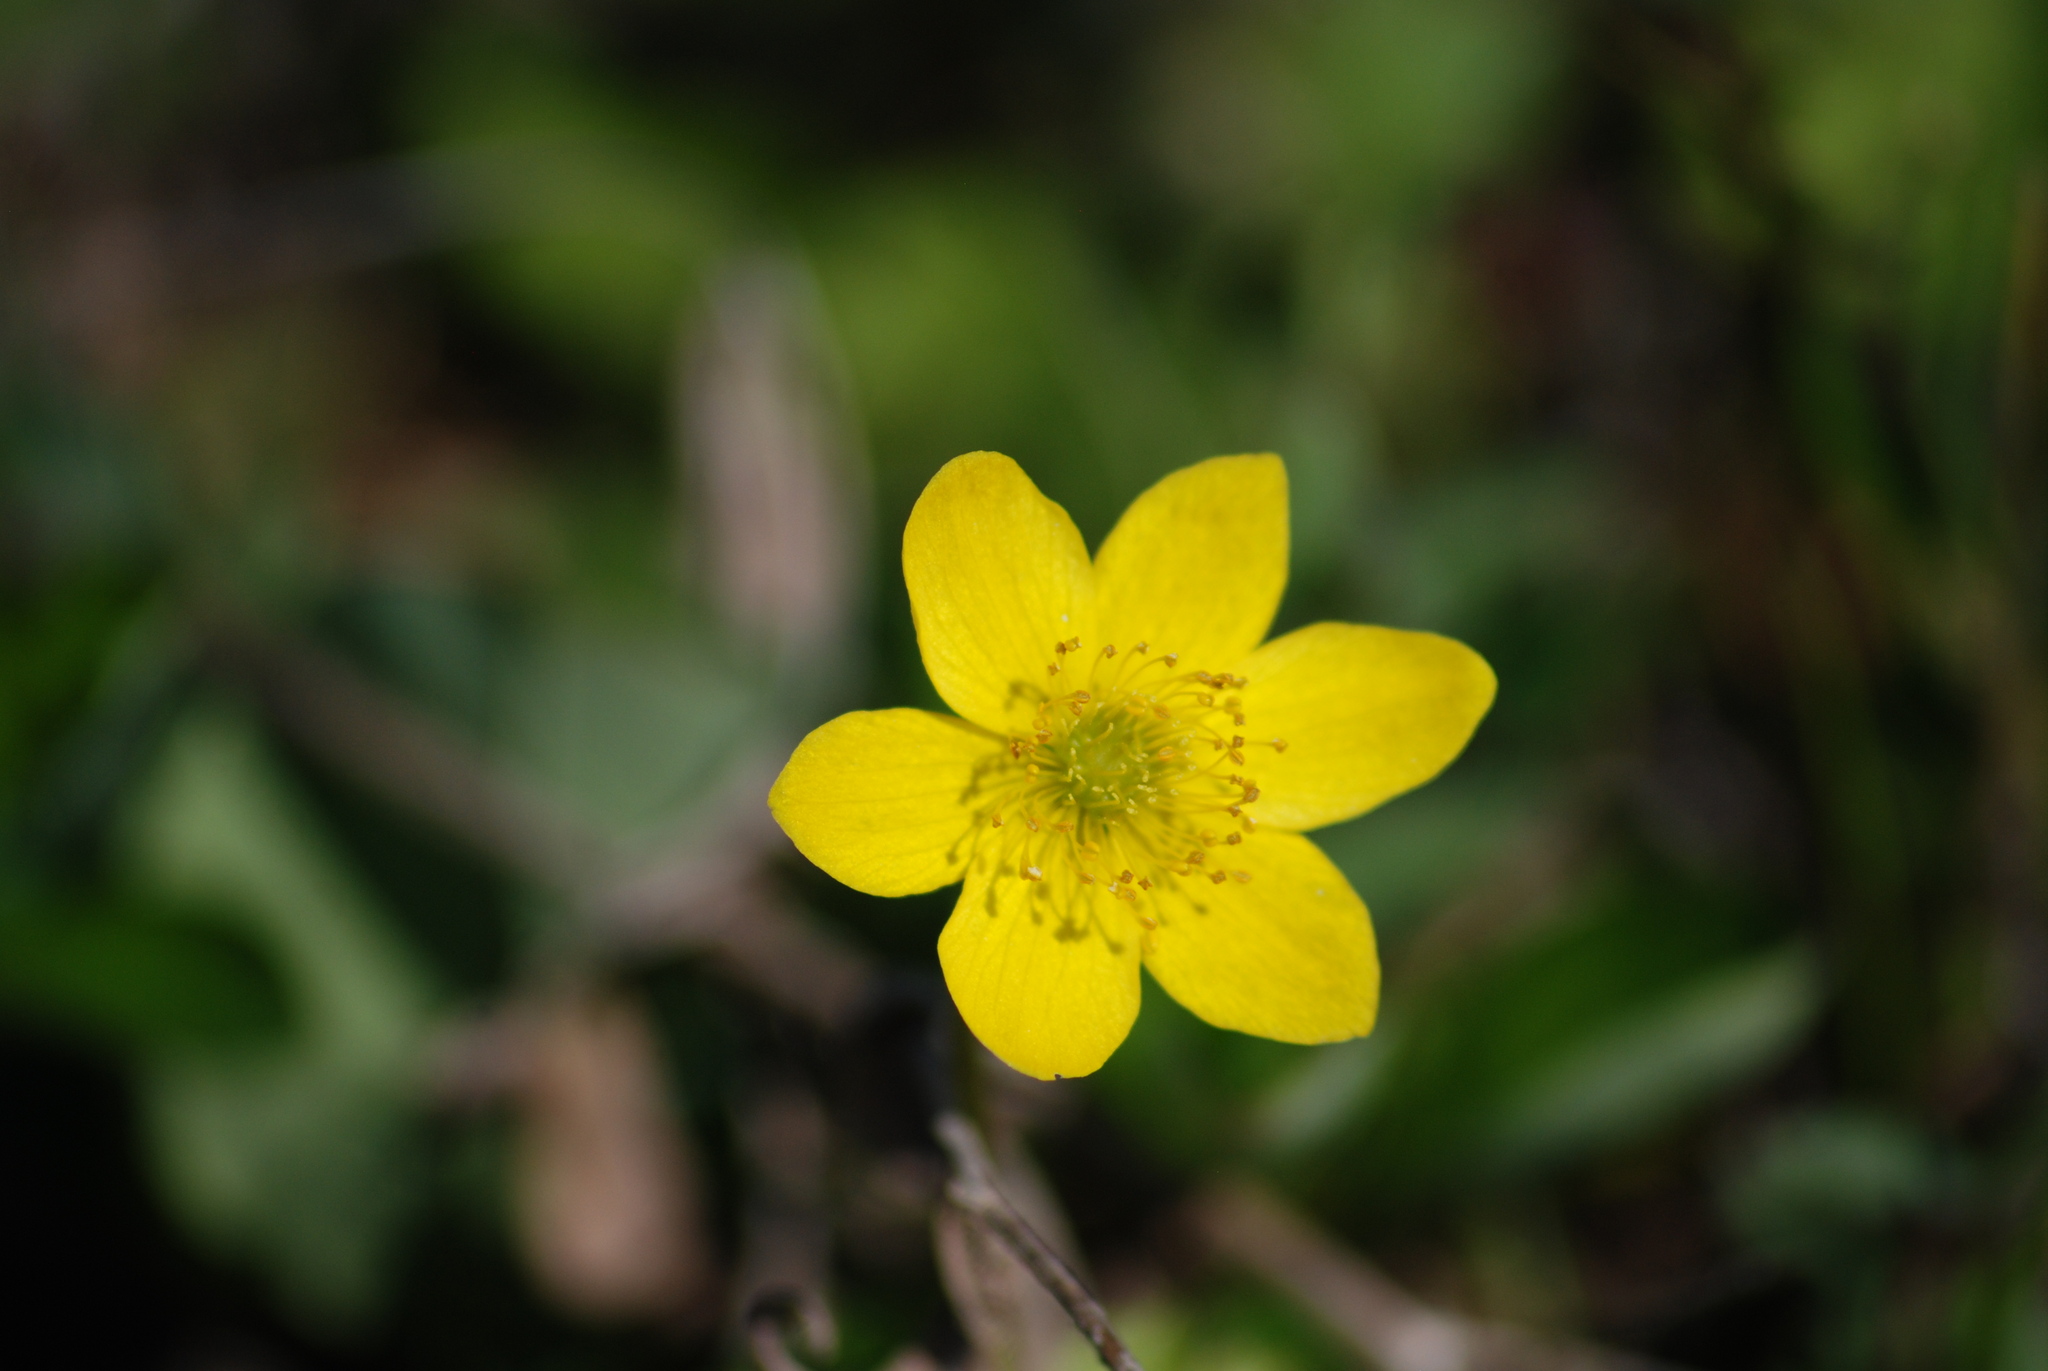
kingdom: Plantae
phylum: Tracheophyta
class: Magnoliopsida
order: Ranunculales
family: Ranunculaceae
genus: Anemonastrum
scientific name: Anemonastrum richardsonii
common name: Richardson's anemone
